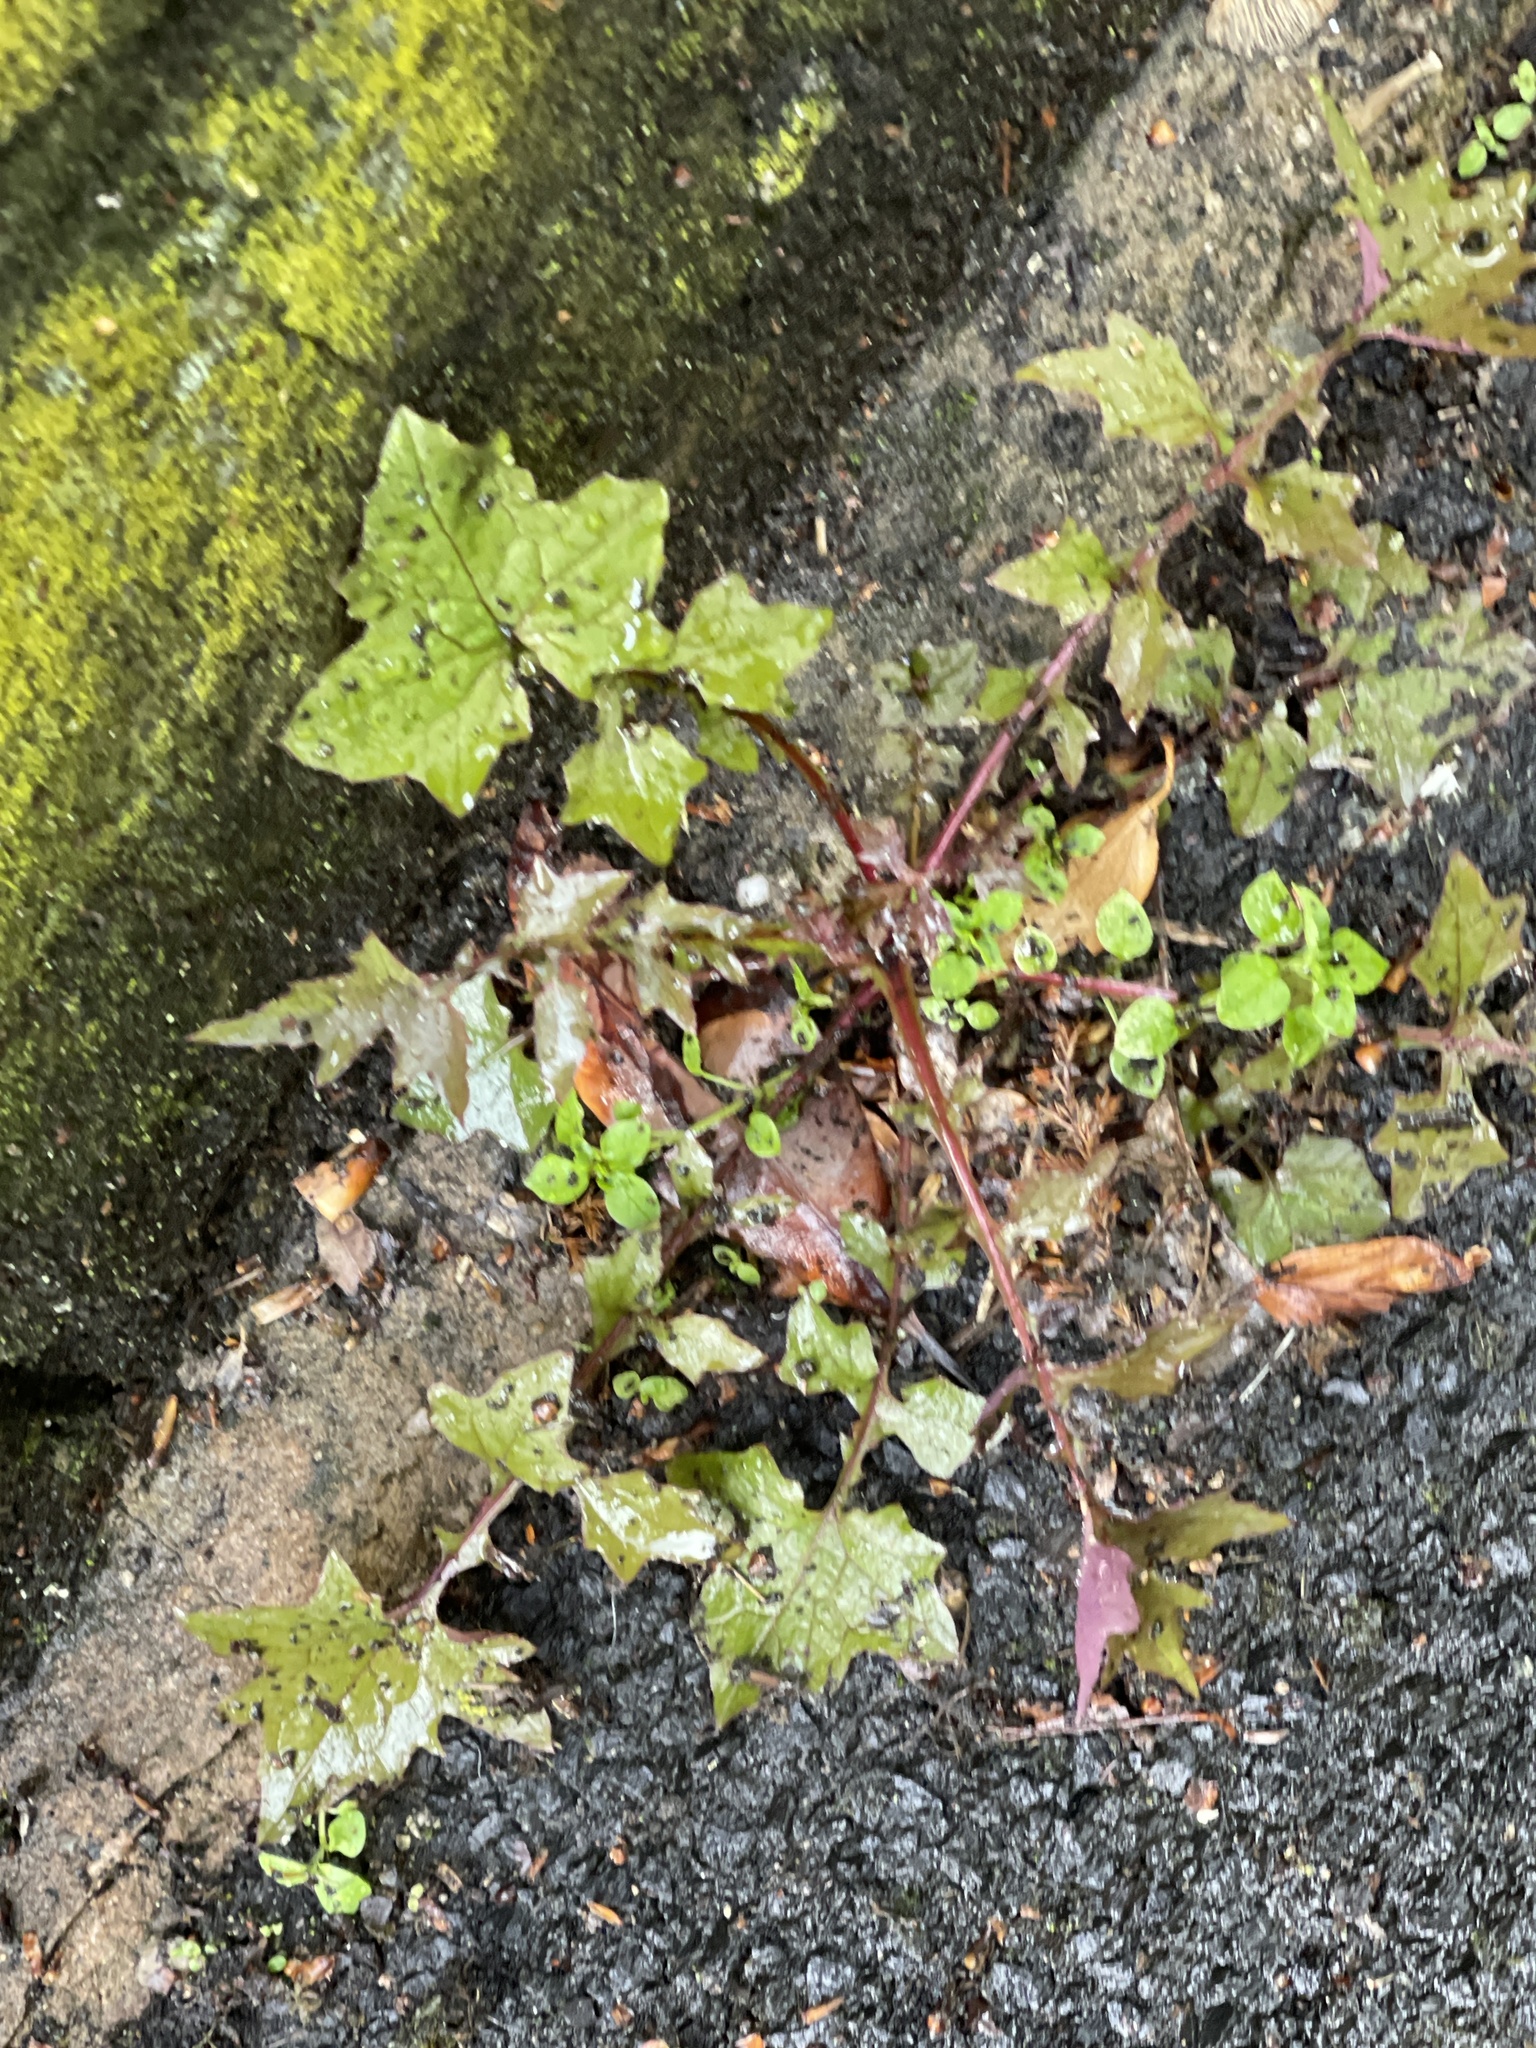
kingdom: Plantae
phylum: Tracheophyta
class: Magnoliopsida
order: Asterales
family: Asteraceae
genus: Mycelis
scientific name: Mycelis muralis
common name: Wall lettuce
